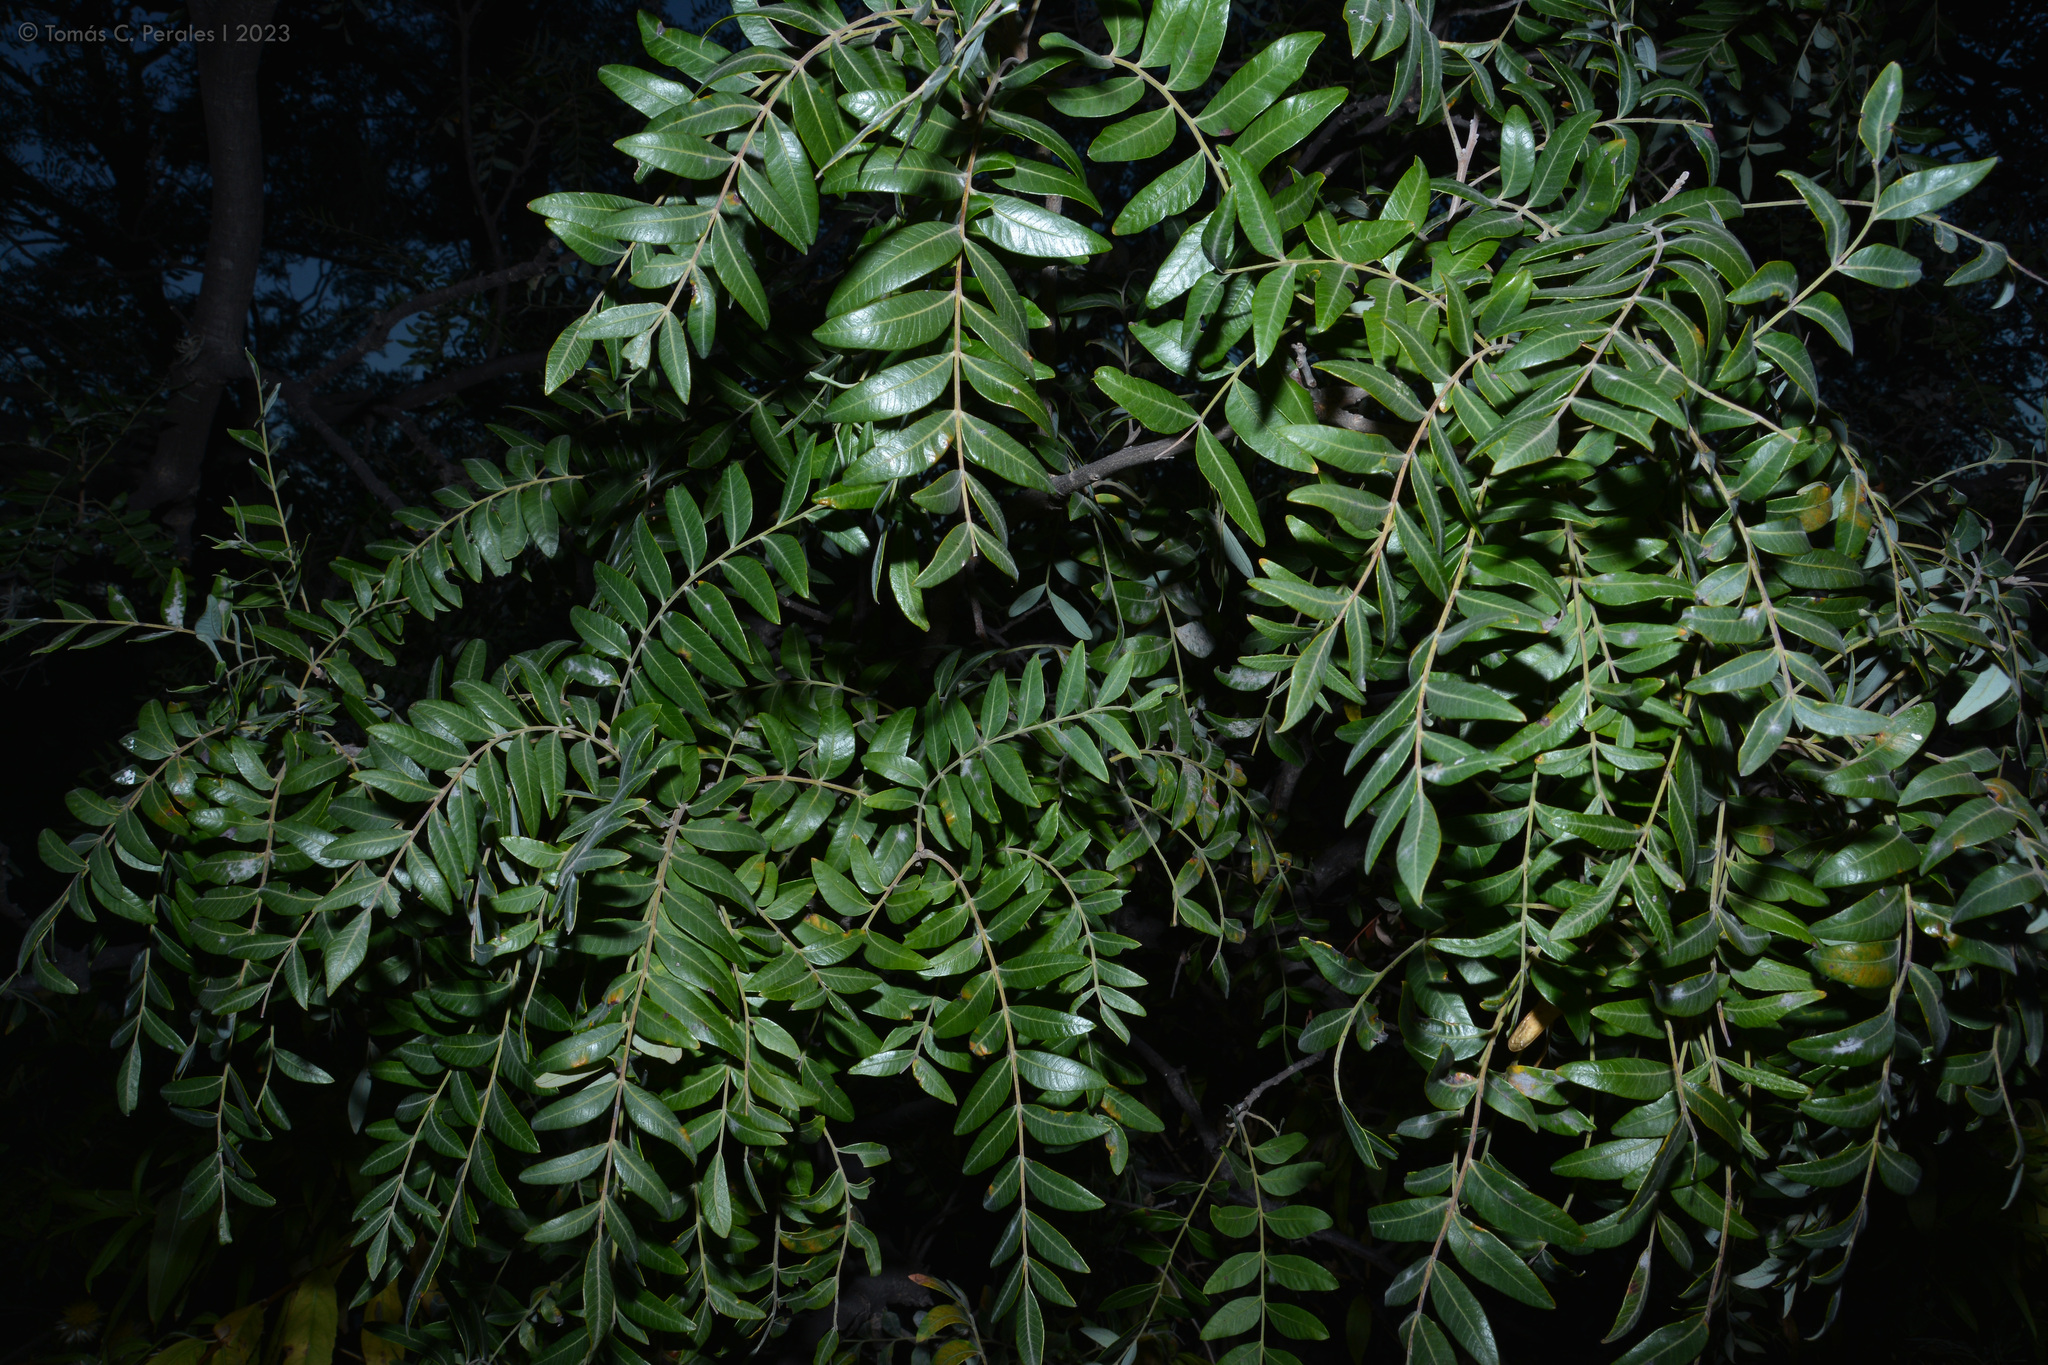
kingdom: Plantae
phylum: Tracheophyta
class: Magnoliopsida
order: Sapindales
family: Anacardiaceae
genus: Schinopsis
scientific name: Schinopsis lorentzii
